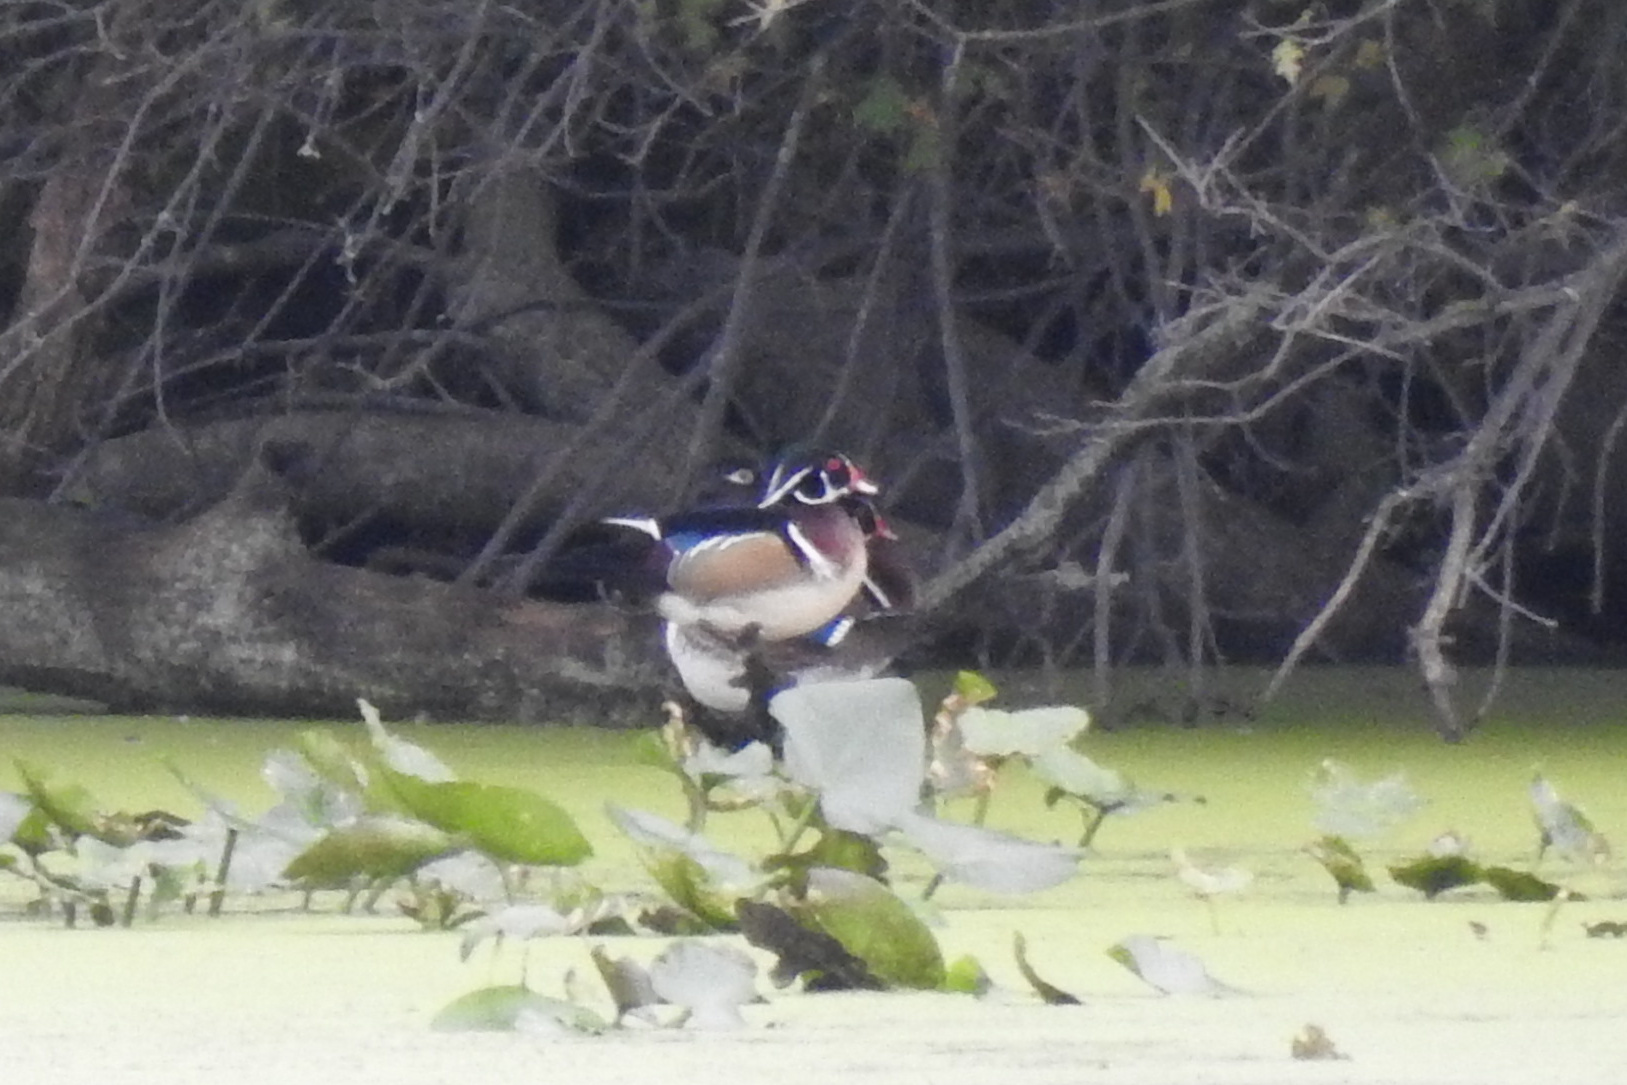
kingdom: Animalia
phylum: Chordata
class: Aves
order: Anseriformes
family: Anatidae
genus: Aix
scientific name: Aix sponsa
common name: Wood duck
